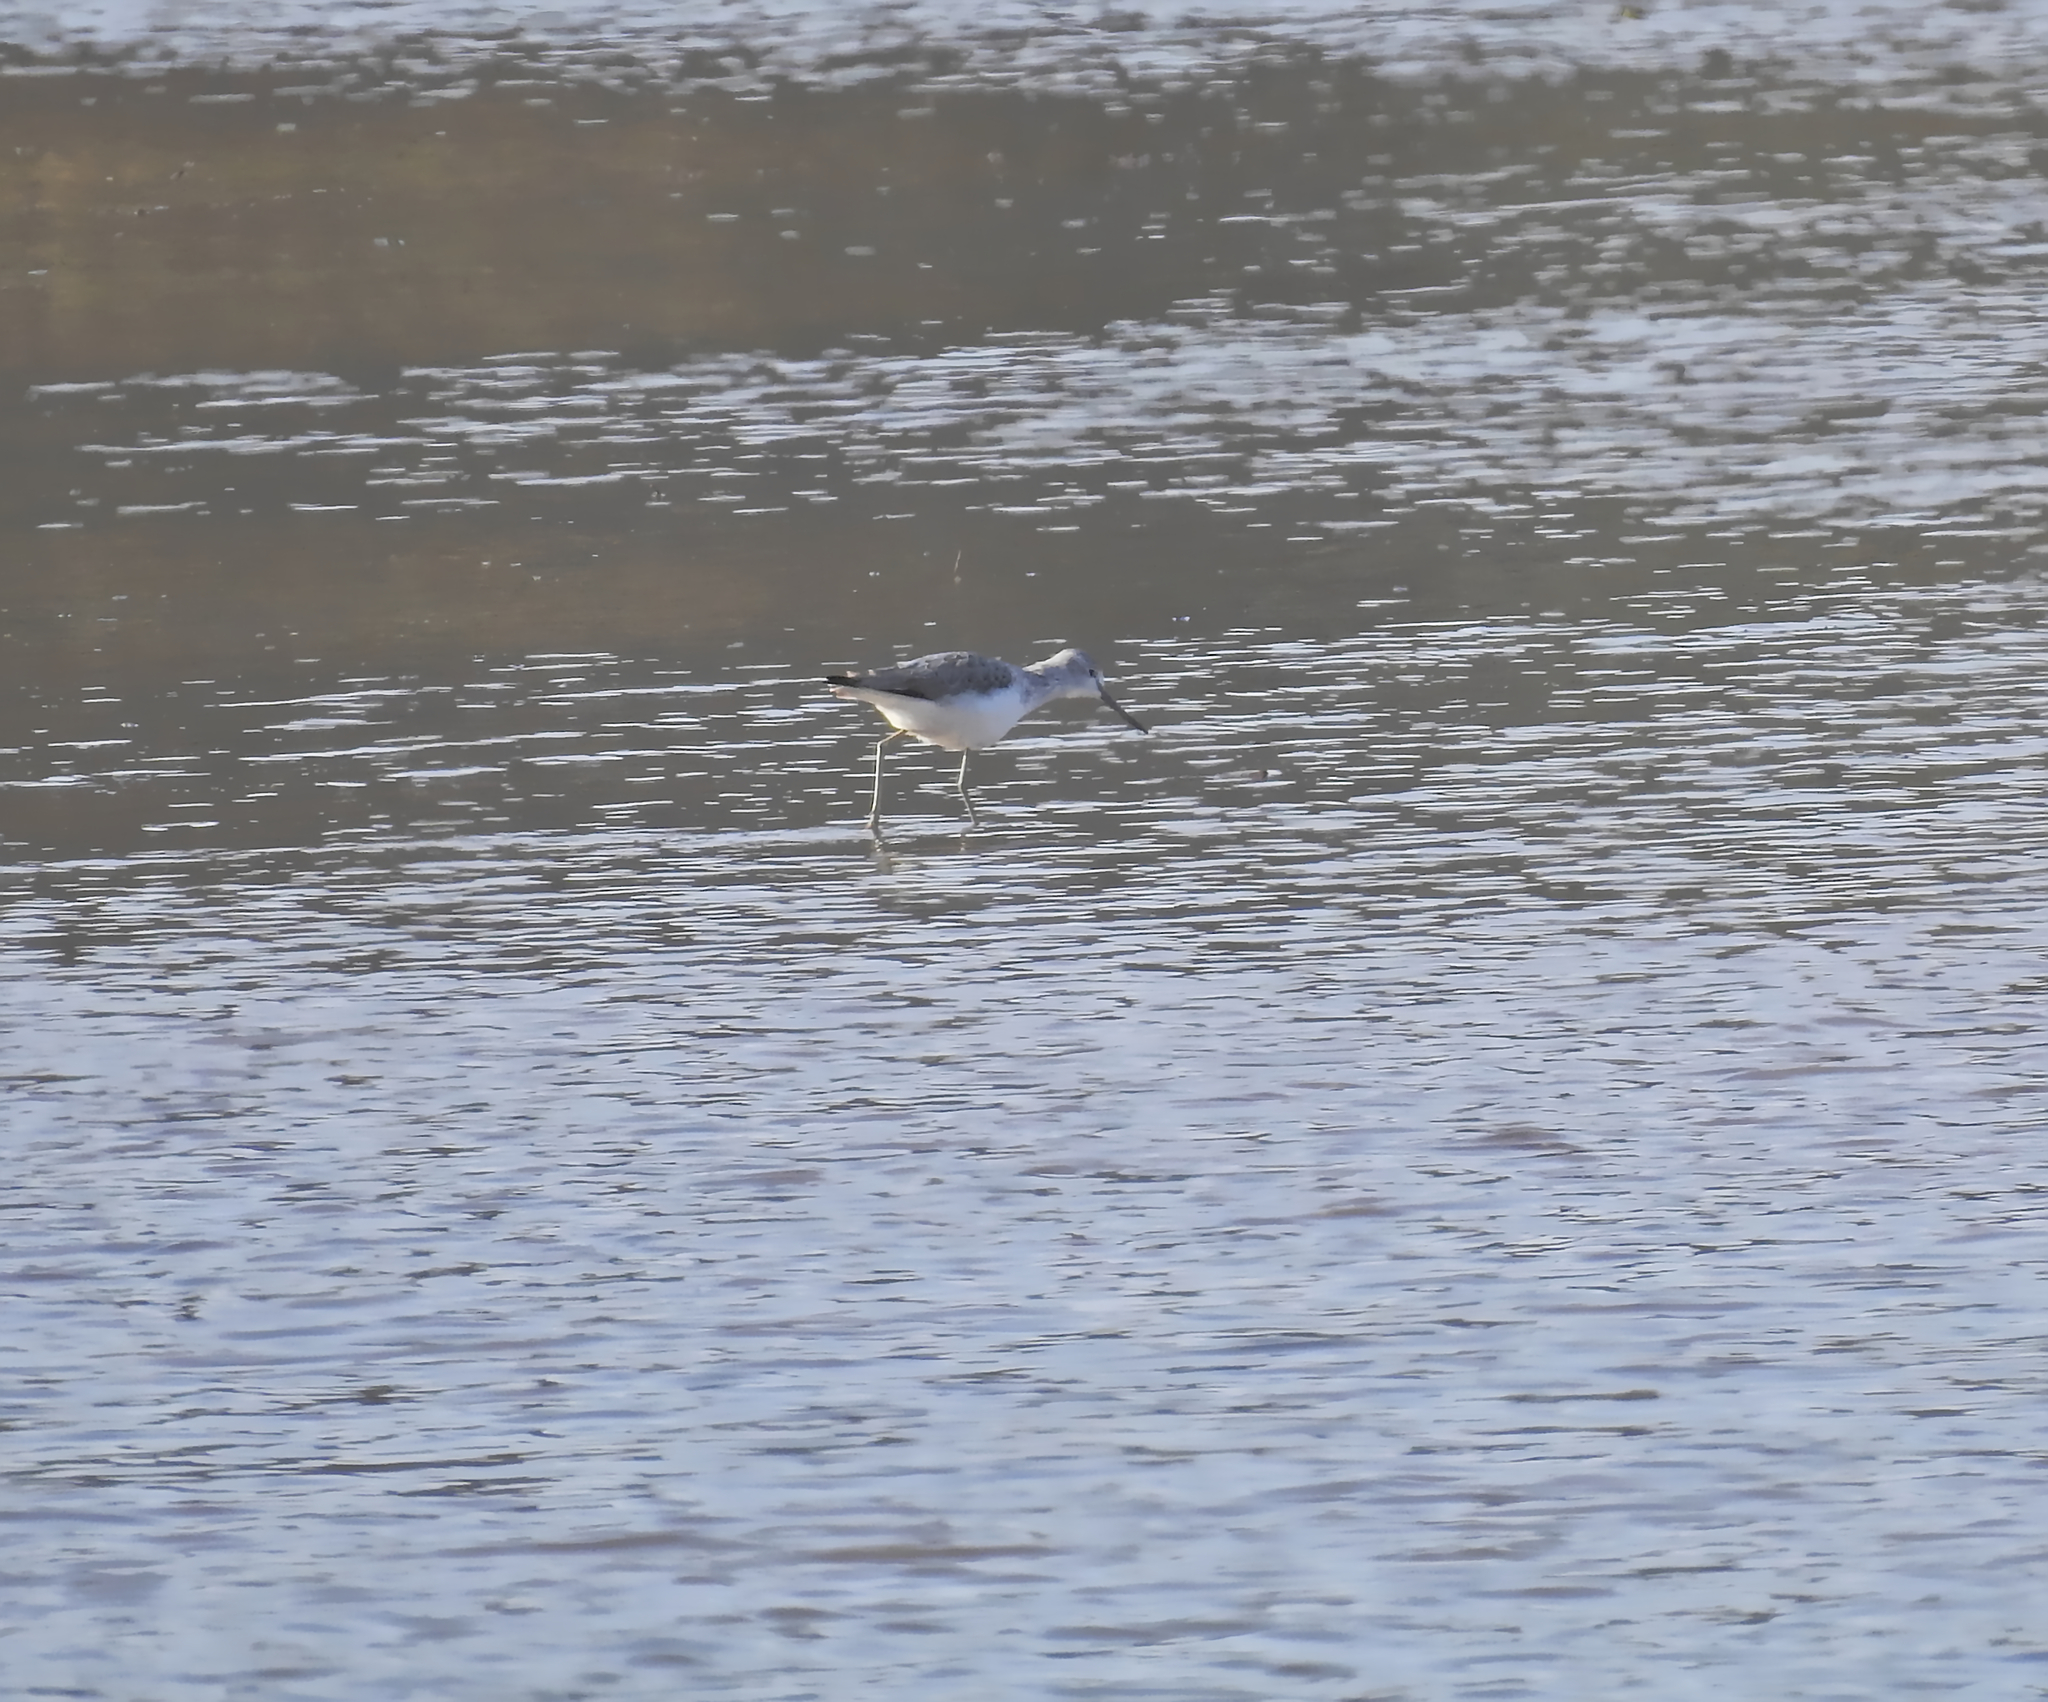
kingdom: Animalia
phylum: Chordata
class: Aves
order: Charadriiformes
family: Scolopacidae
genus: Tringa
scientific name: Tringa nebularia
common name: Common greenshank
